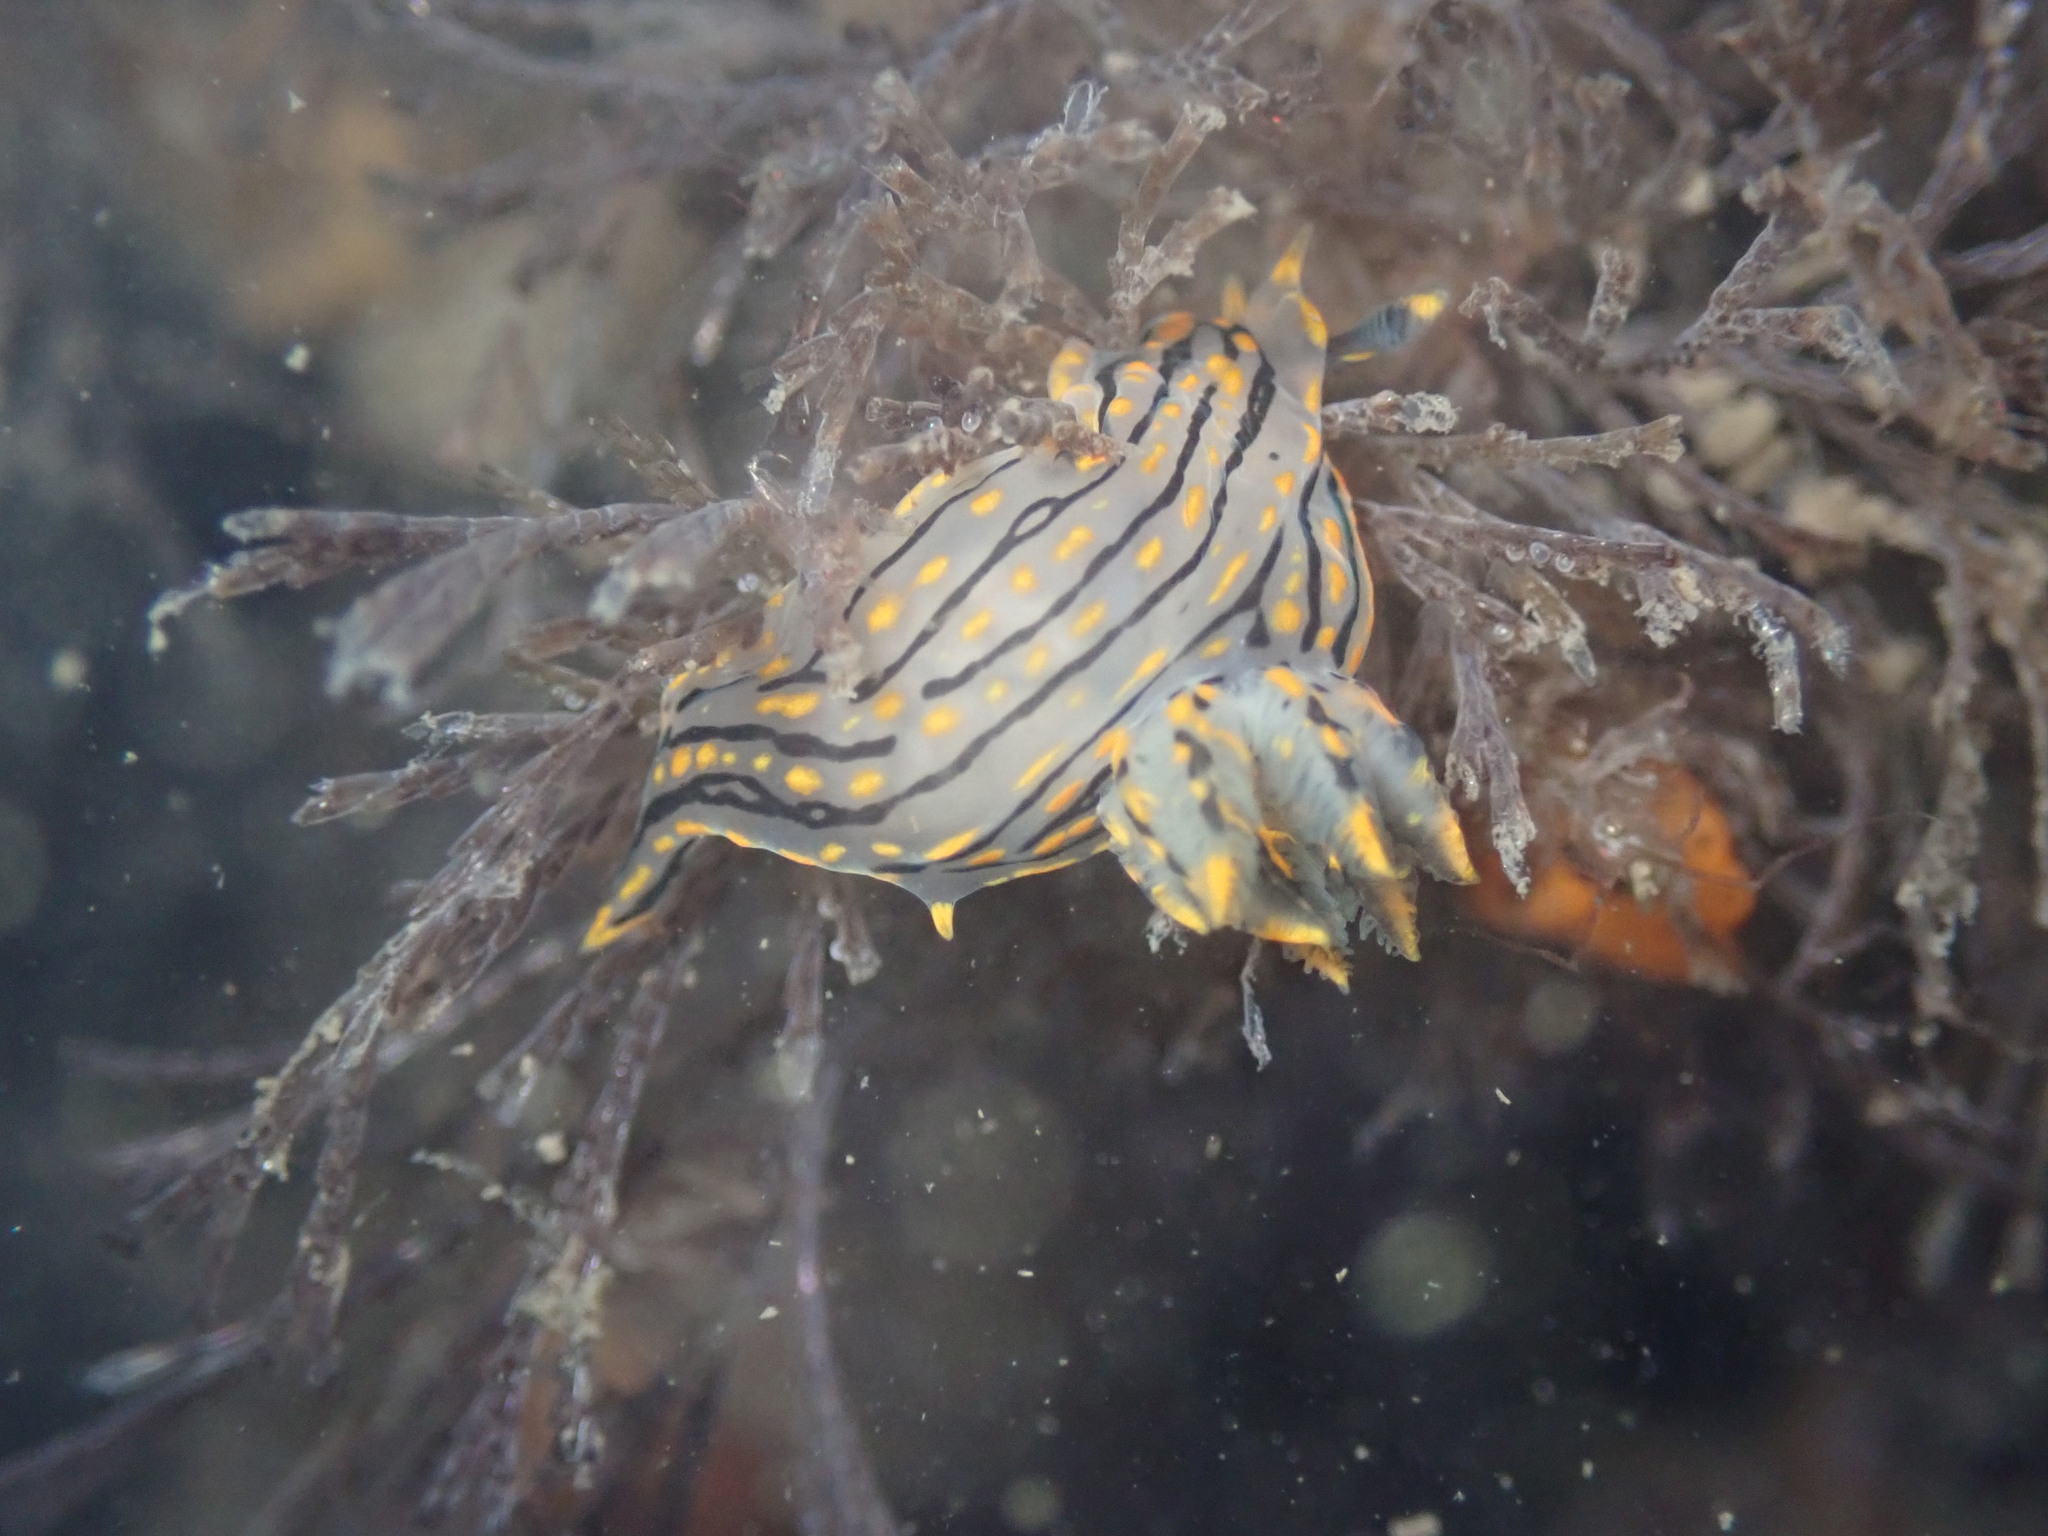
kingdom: Animalia
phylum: Mollusca
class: Gastropoda
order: Nudibranchia
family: Polyceridae
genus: Polycera
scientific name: Polycera atra
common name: Orange-spike polycera
